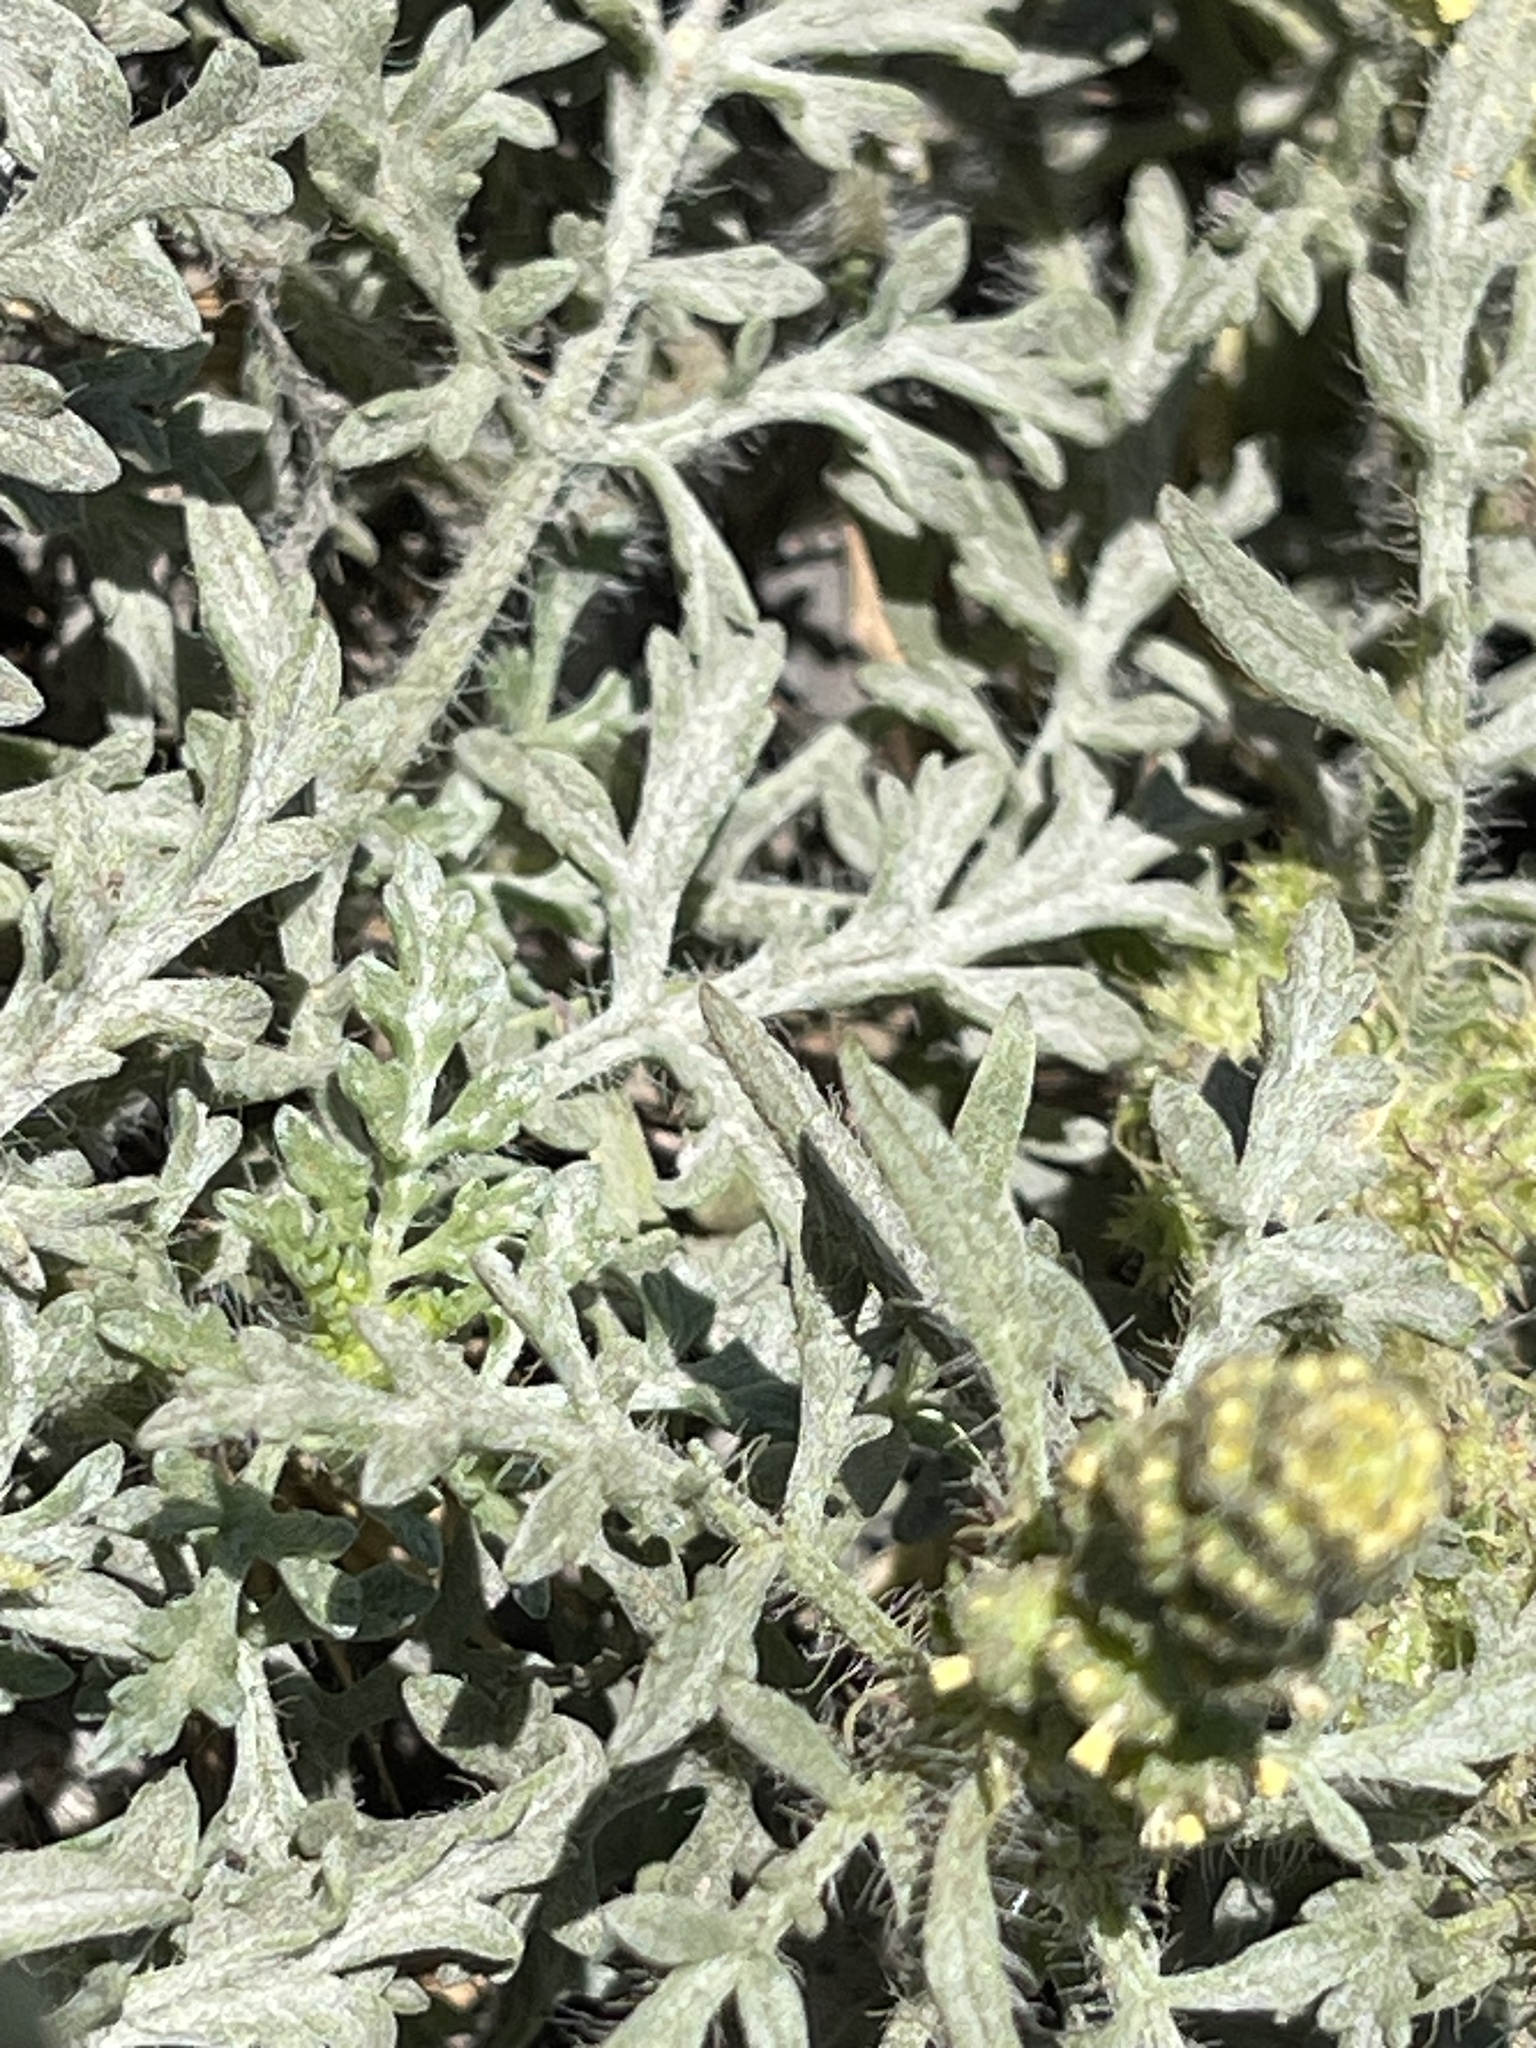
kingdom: Plantae
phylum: Tracheophyta
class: Magnoliopsida
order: Asterales
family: Asteraceae
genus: Ambrosia
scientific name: Ambrosia chamissonis
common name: Beachbur
